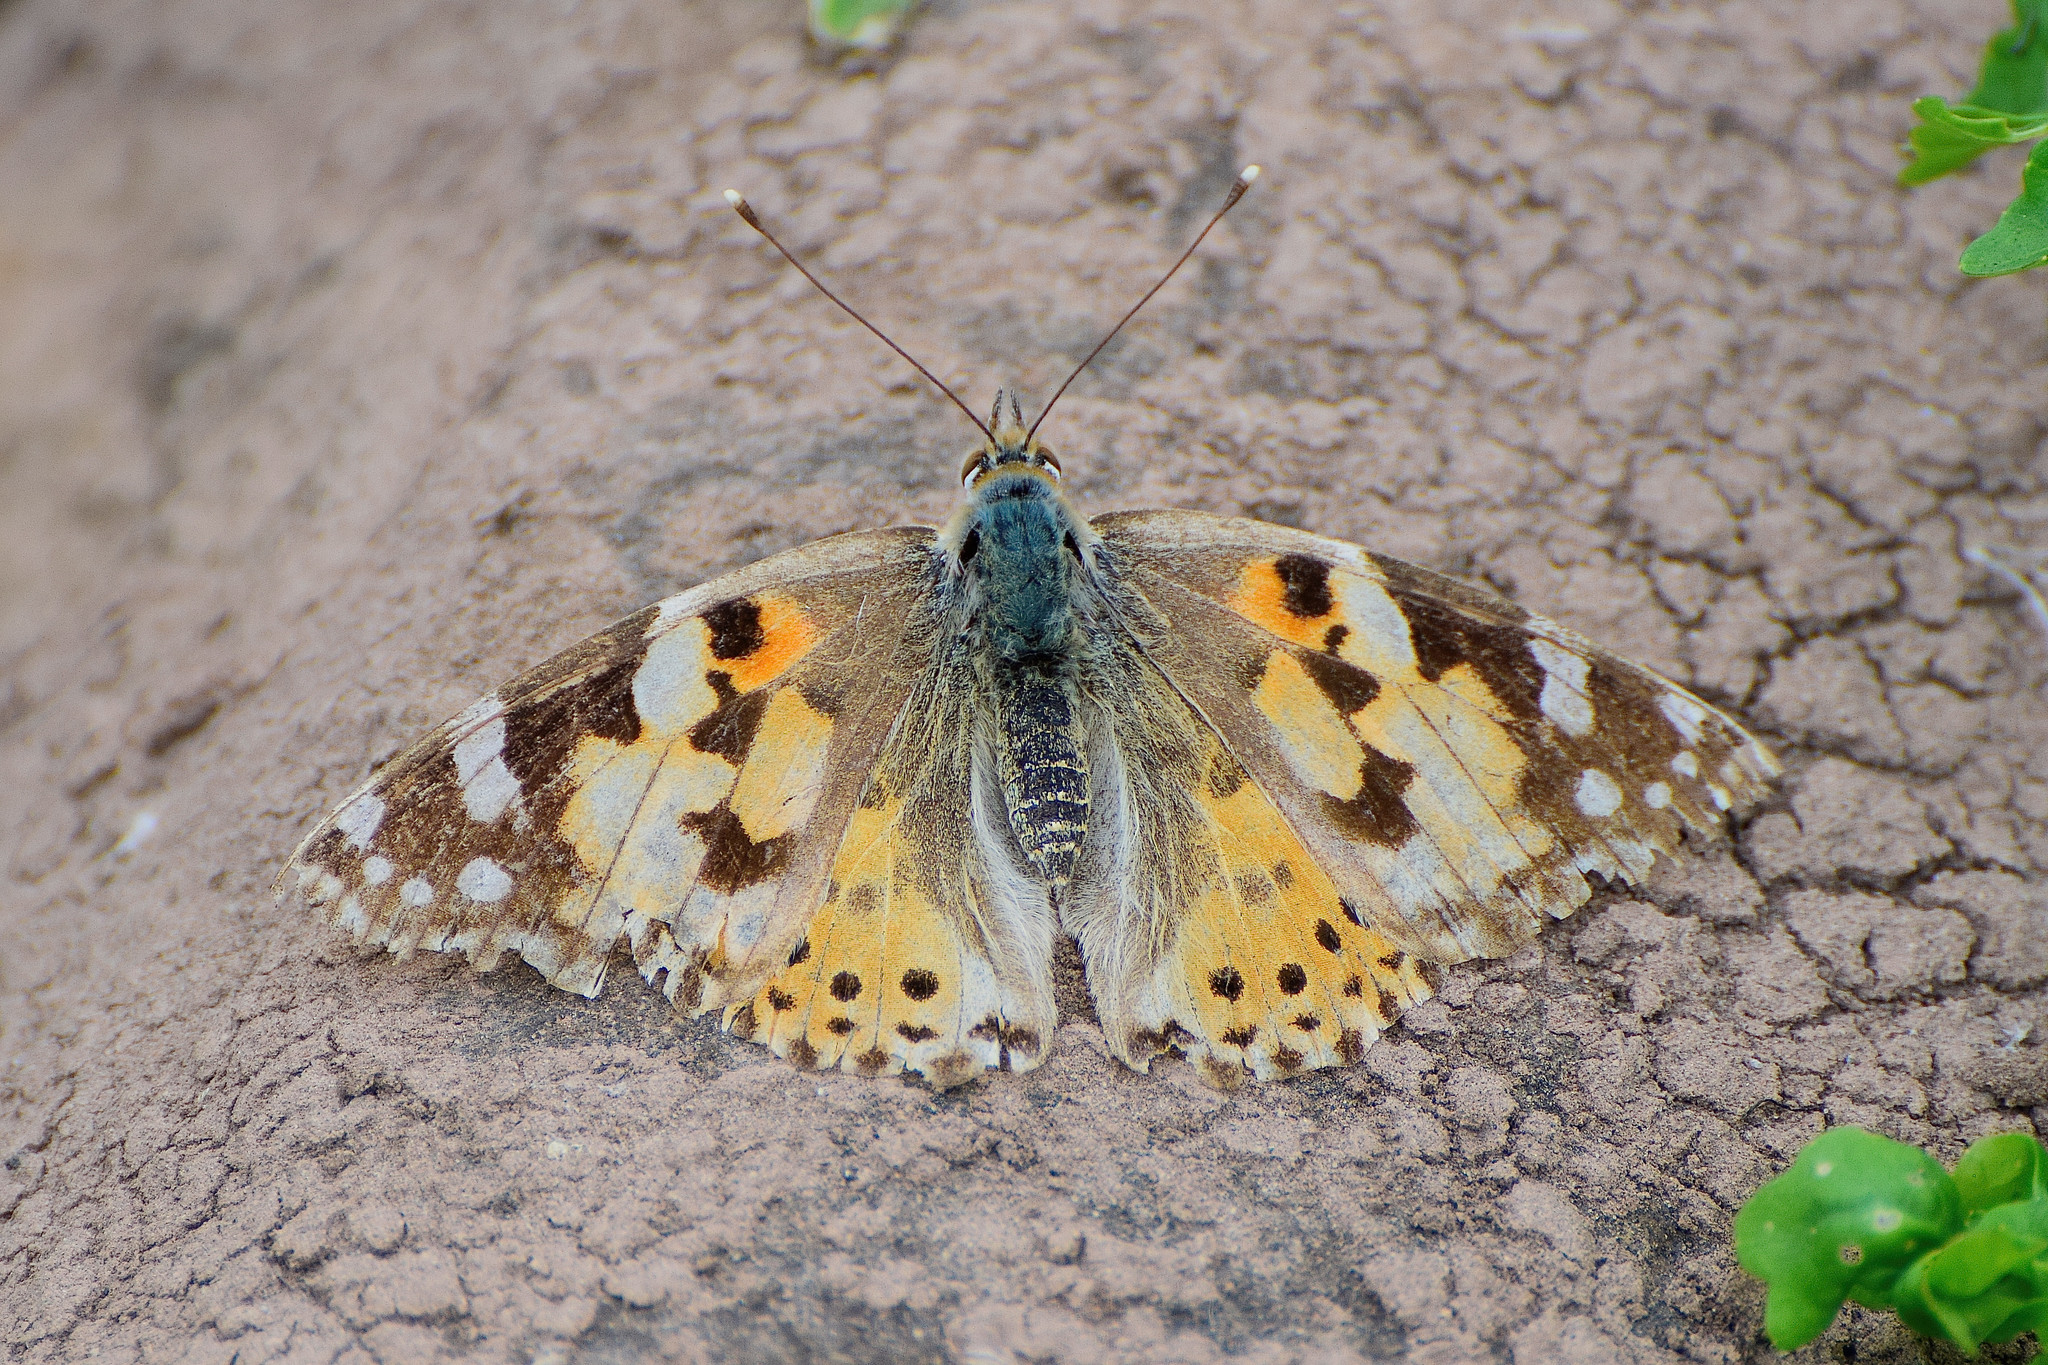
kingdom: Animalia
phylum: Arthropoda
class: Insecta
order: Lepidoptera
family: Nymphalidae
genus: Vanessa
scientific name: Vanessa cardui
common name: Painted lady
